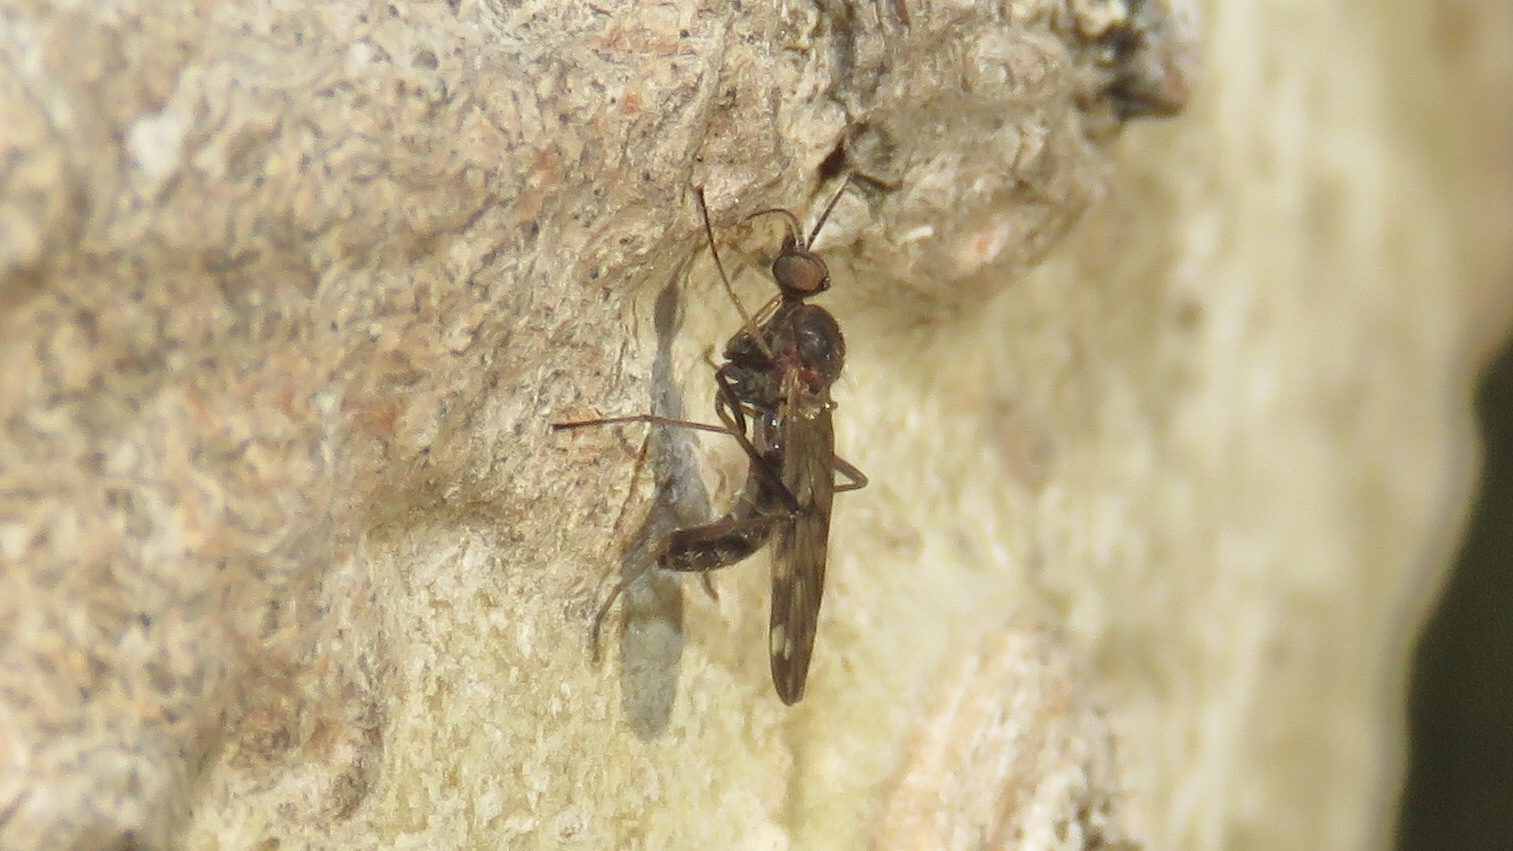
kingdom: Animalia
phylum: Arthropoda
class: Insecta
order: Diptera
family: Anisopodidae
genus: Sylvicola
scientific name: Sylvicola alternata
